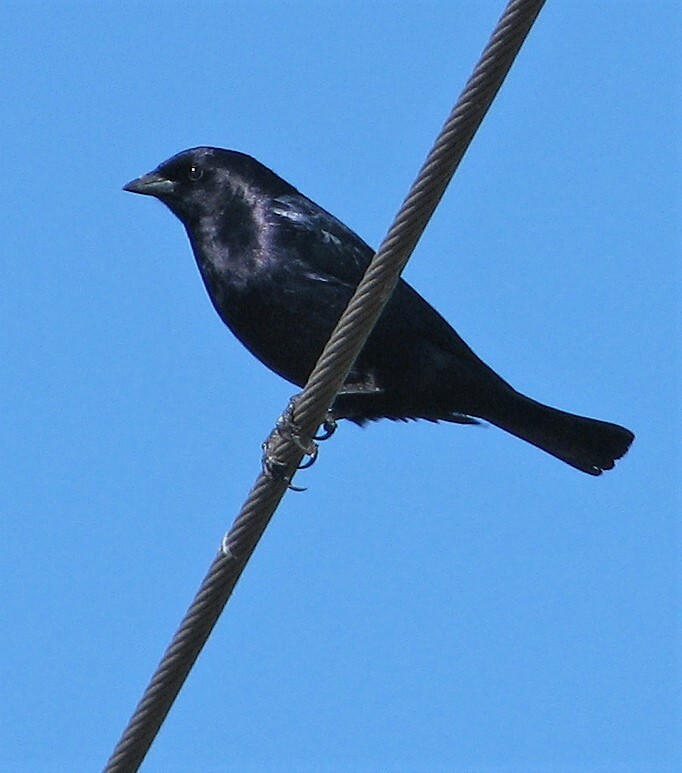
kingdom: Animalia
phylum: Chordata
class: Aves
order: Passeriformes
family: Icteridae
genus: Molothrus
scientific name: Molothrus bonariensis
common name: Shiny cowbird
